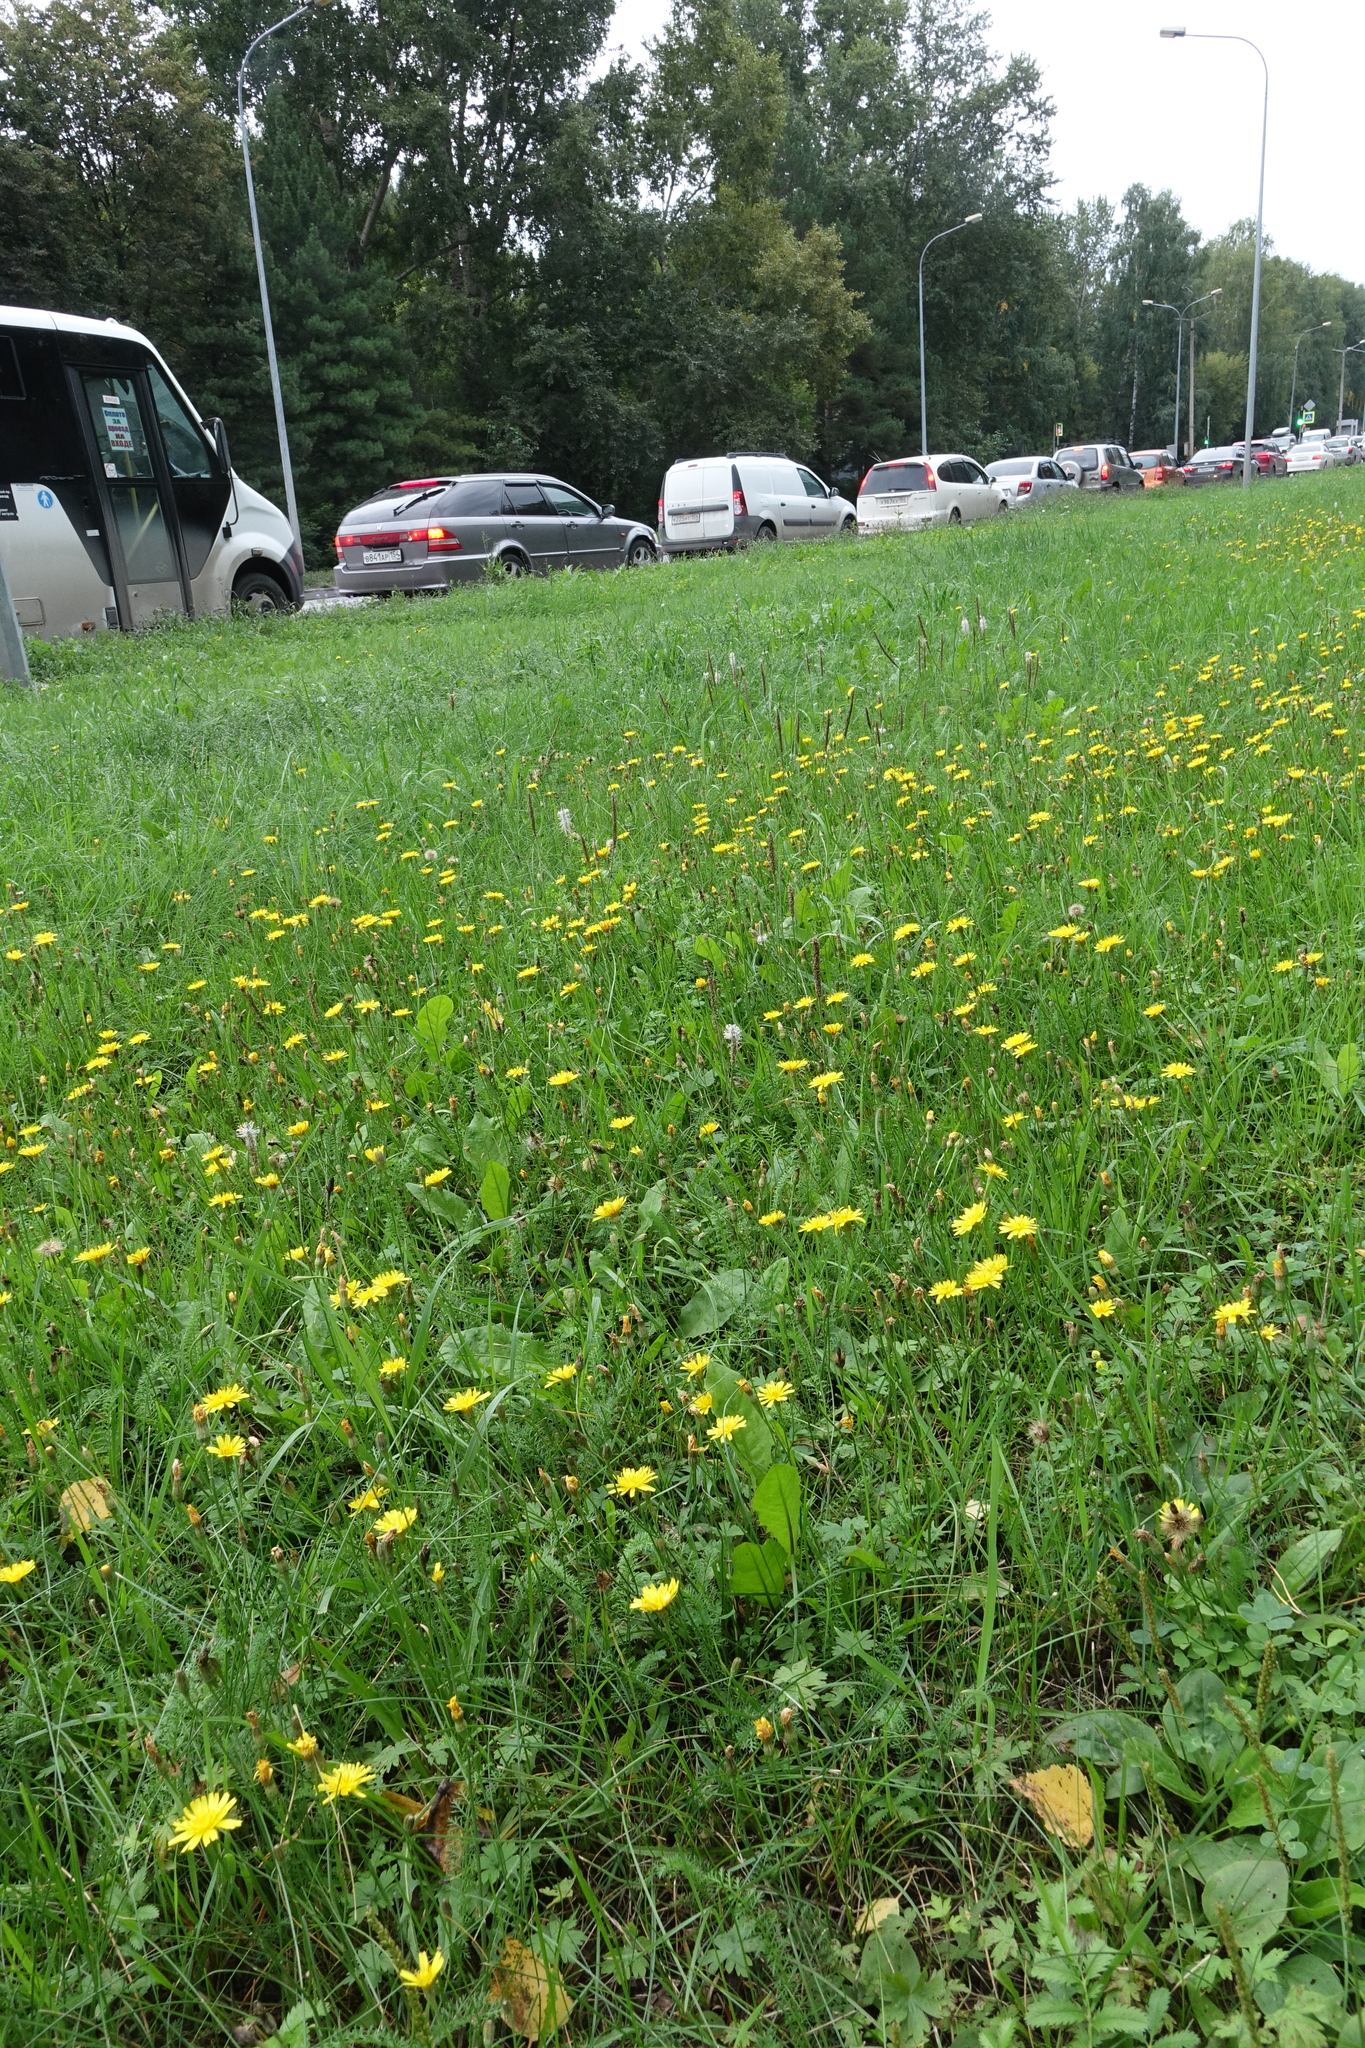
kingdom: Plantae
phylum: Tracheophyta
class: Magnoliopsida
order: Asterales
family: Asteraceae
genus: Scorzoneroides
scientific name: Scorzoneroides autumnalis
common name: Autumn hawkbit
